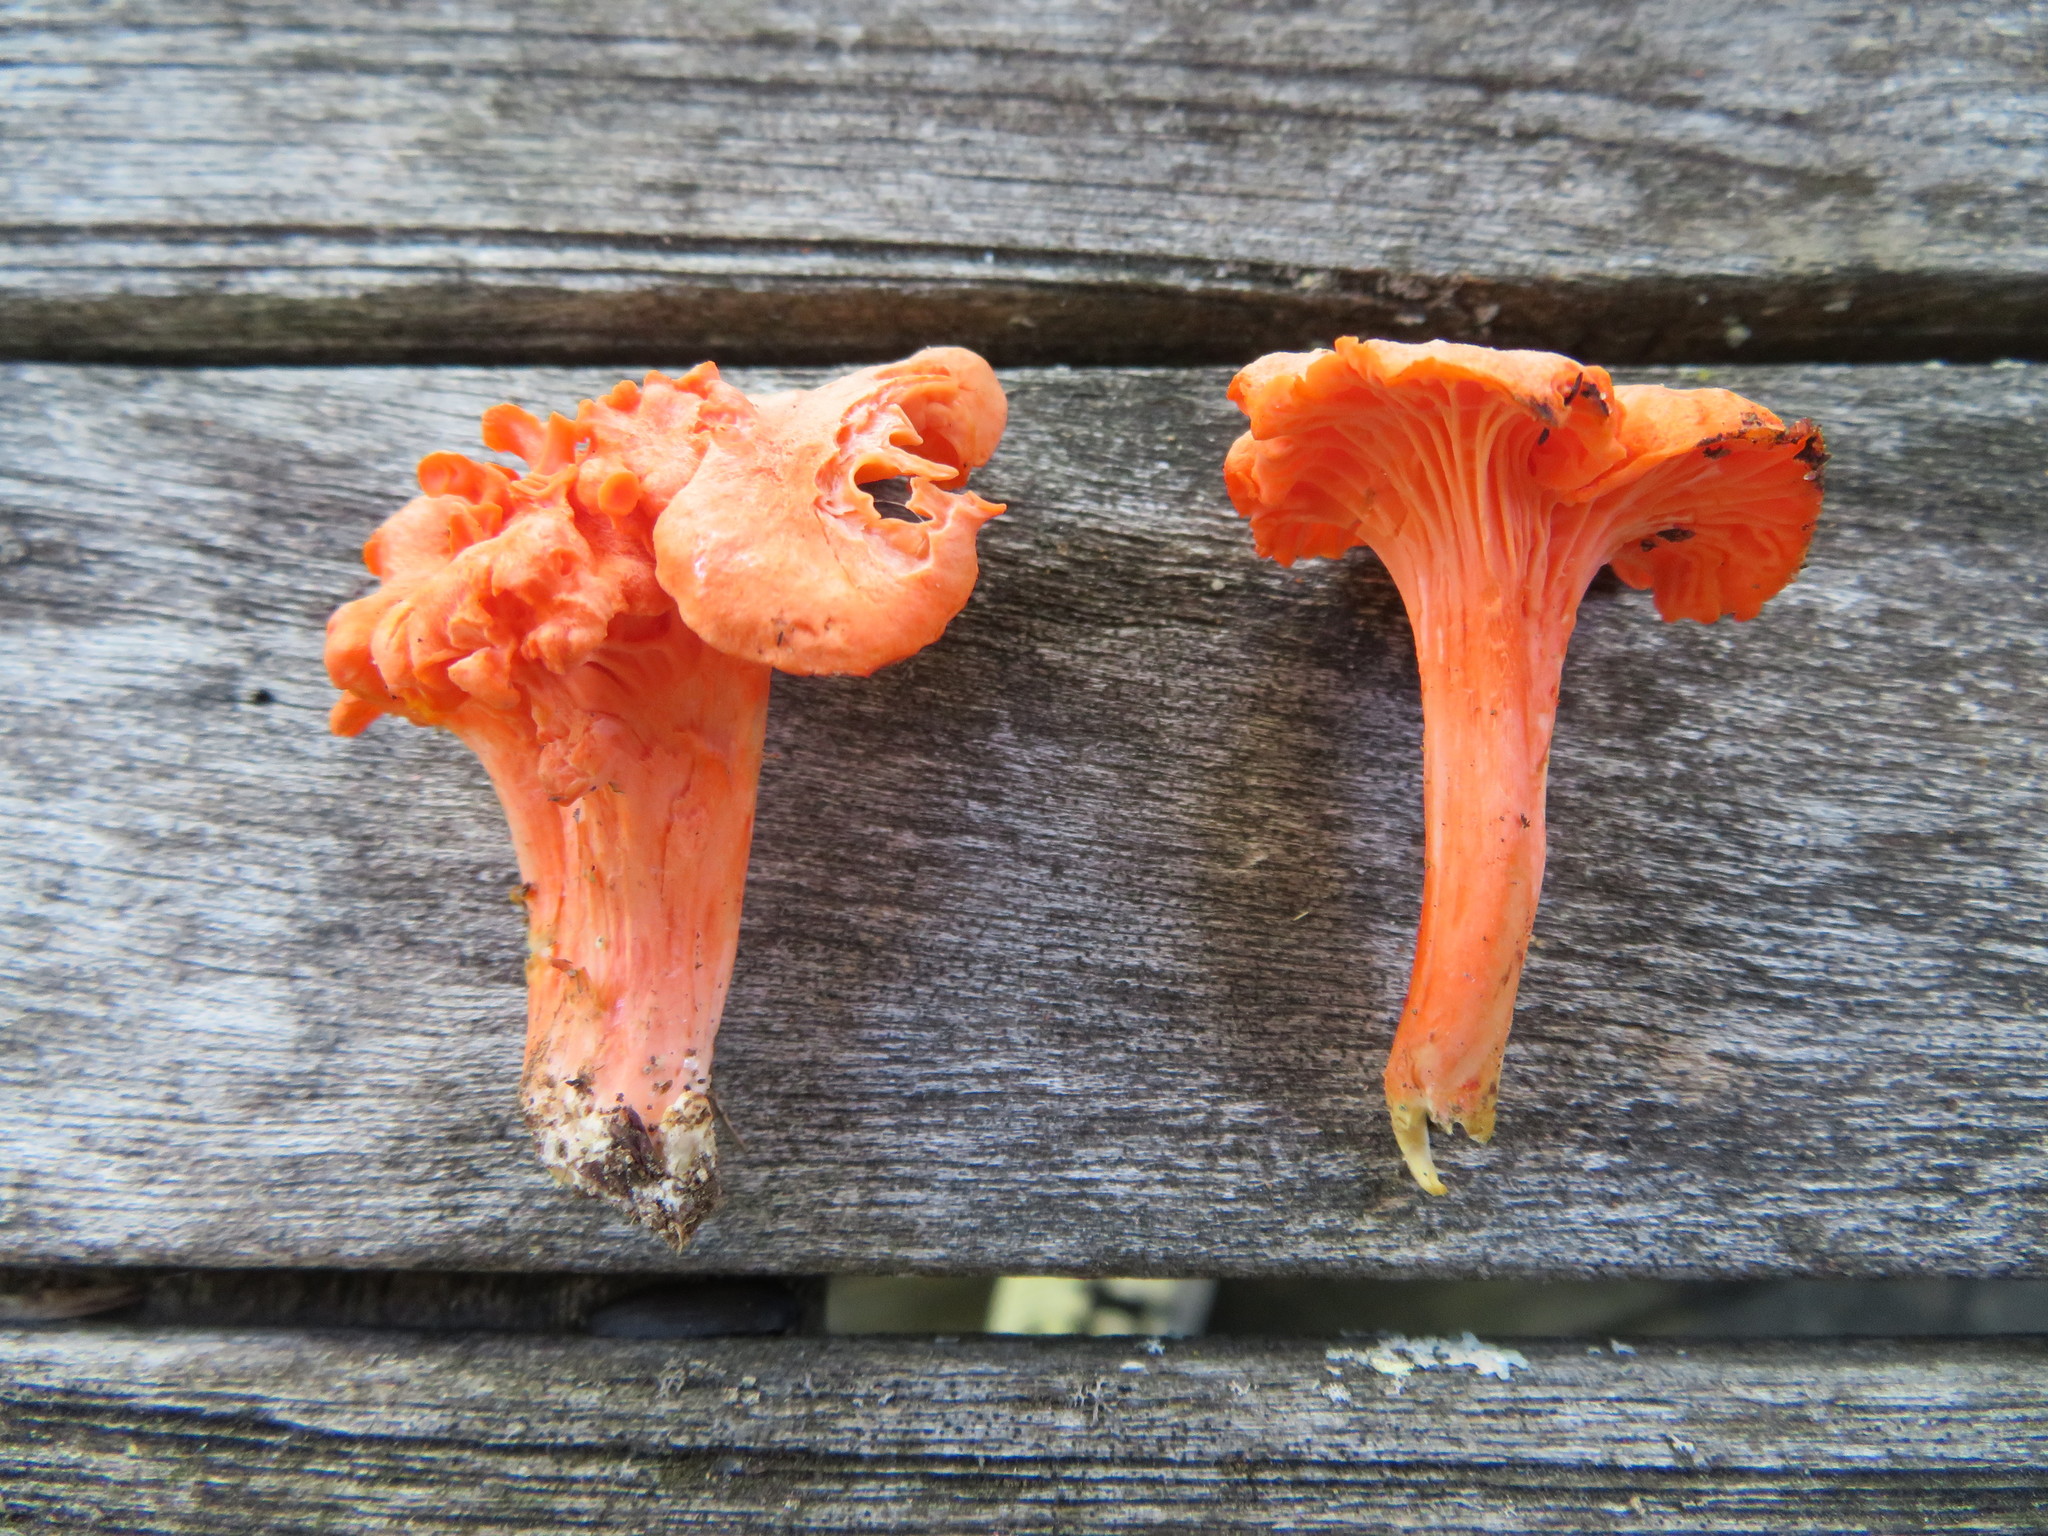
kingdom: Fungi
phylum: Basidiomycota
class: Agaricomycetes
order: Cantharellales
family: Hydnaceae
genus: Cantharellus
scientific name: Cantharellus cinnabarinus
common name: Cinnabar chanterelle
